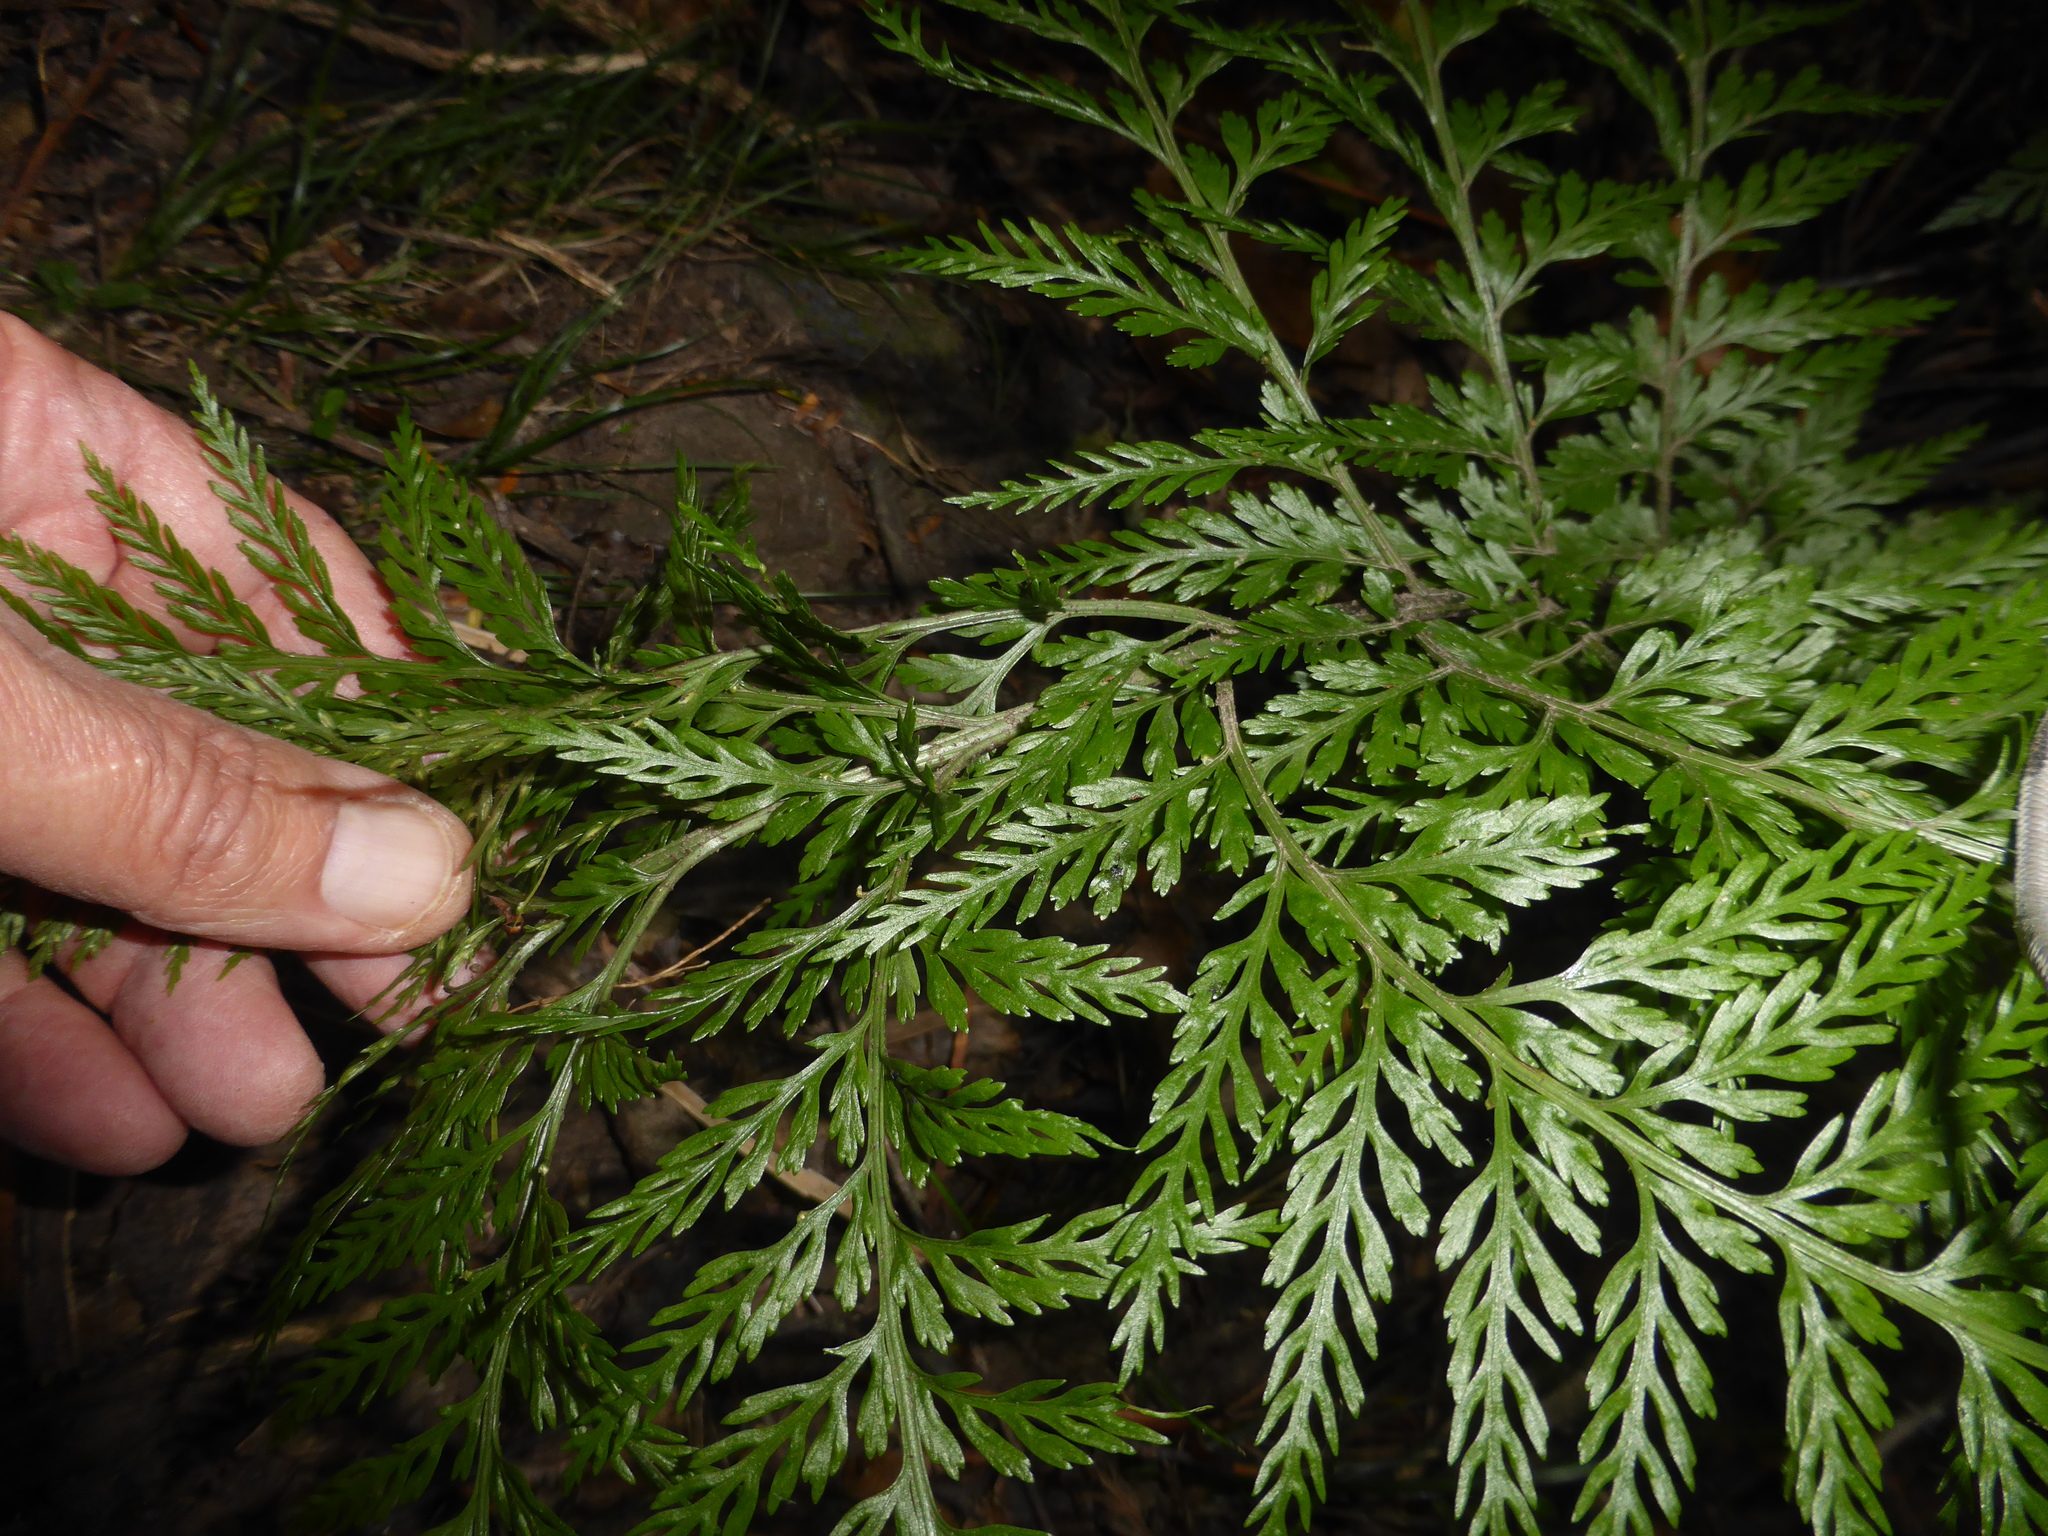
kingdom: Plantae
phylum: Tracheophyta
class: Polypodiopsida
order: Polypodiales
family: Aspleniaceae
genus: Asplenium
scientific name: Asplenium appendiculatum
